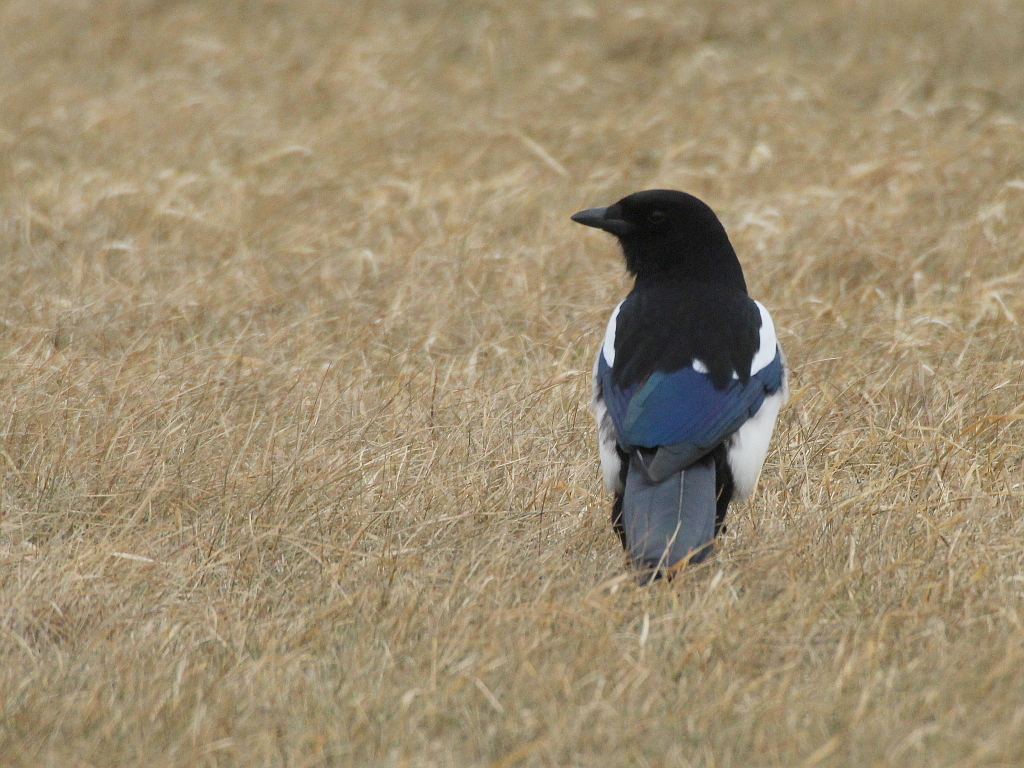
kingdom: Animalia
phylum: Chordata
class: Aves
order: Passeriformes
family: Corvidae
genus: Pica
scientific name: Pica serica
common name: Oriental magpie
